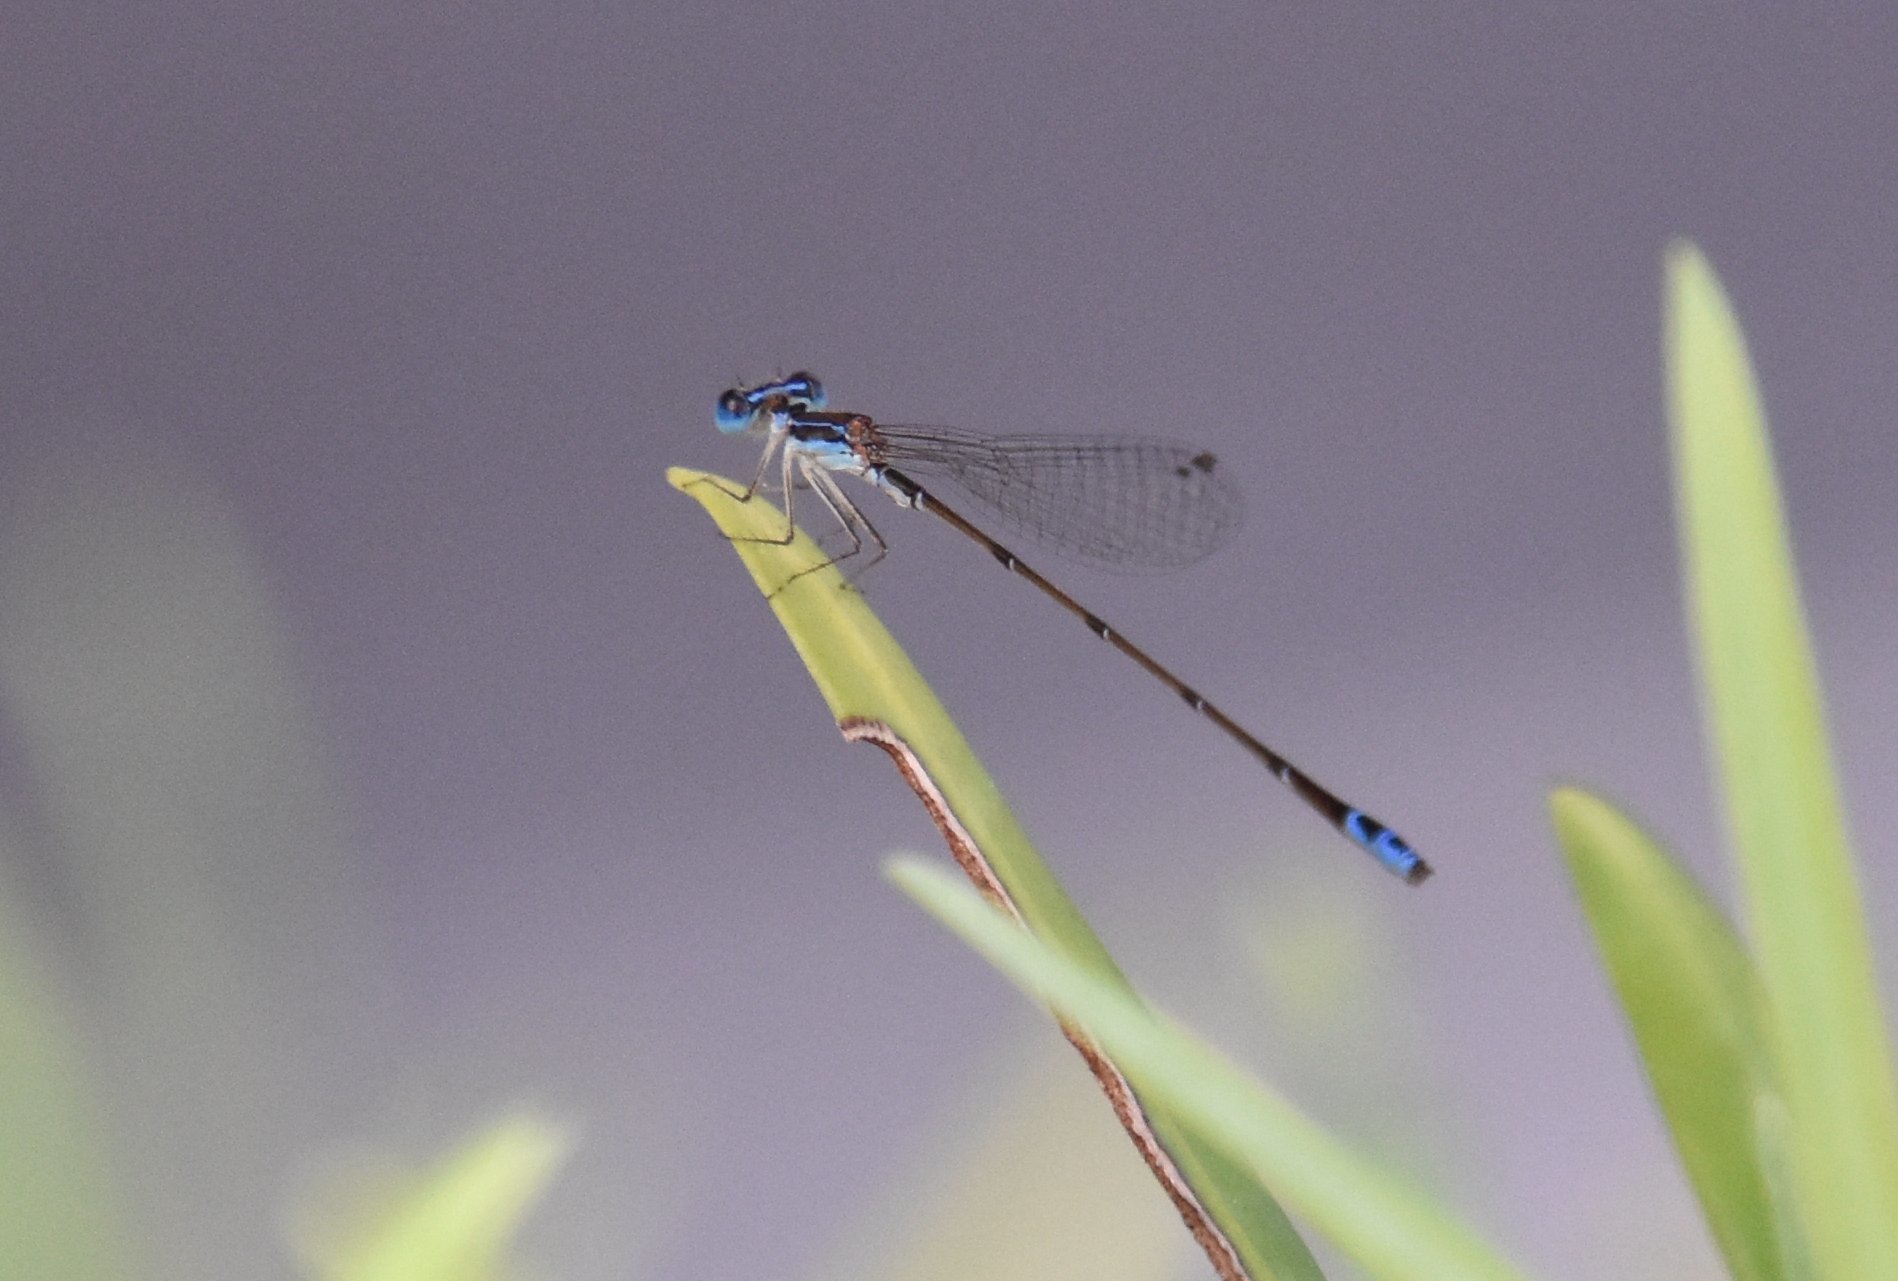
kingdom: Animalia
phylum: Arthropoda
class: Insecta
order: Odonata
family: Coenagrionidae
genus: Nehalennia
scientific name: Nehalennia pallidula
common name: Everglades sprite
